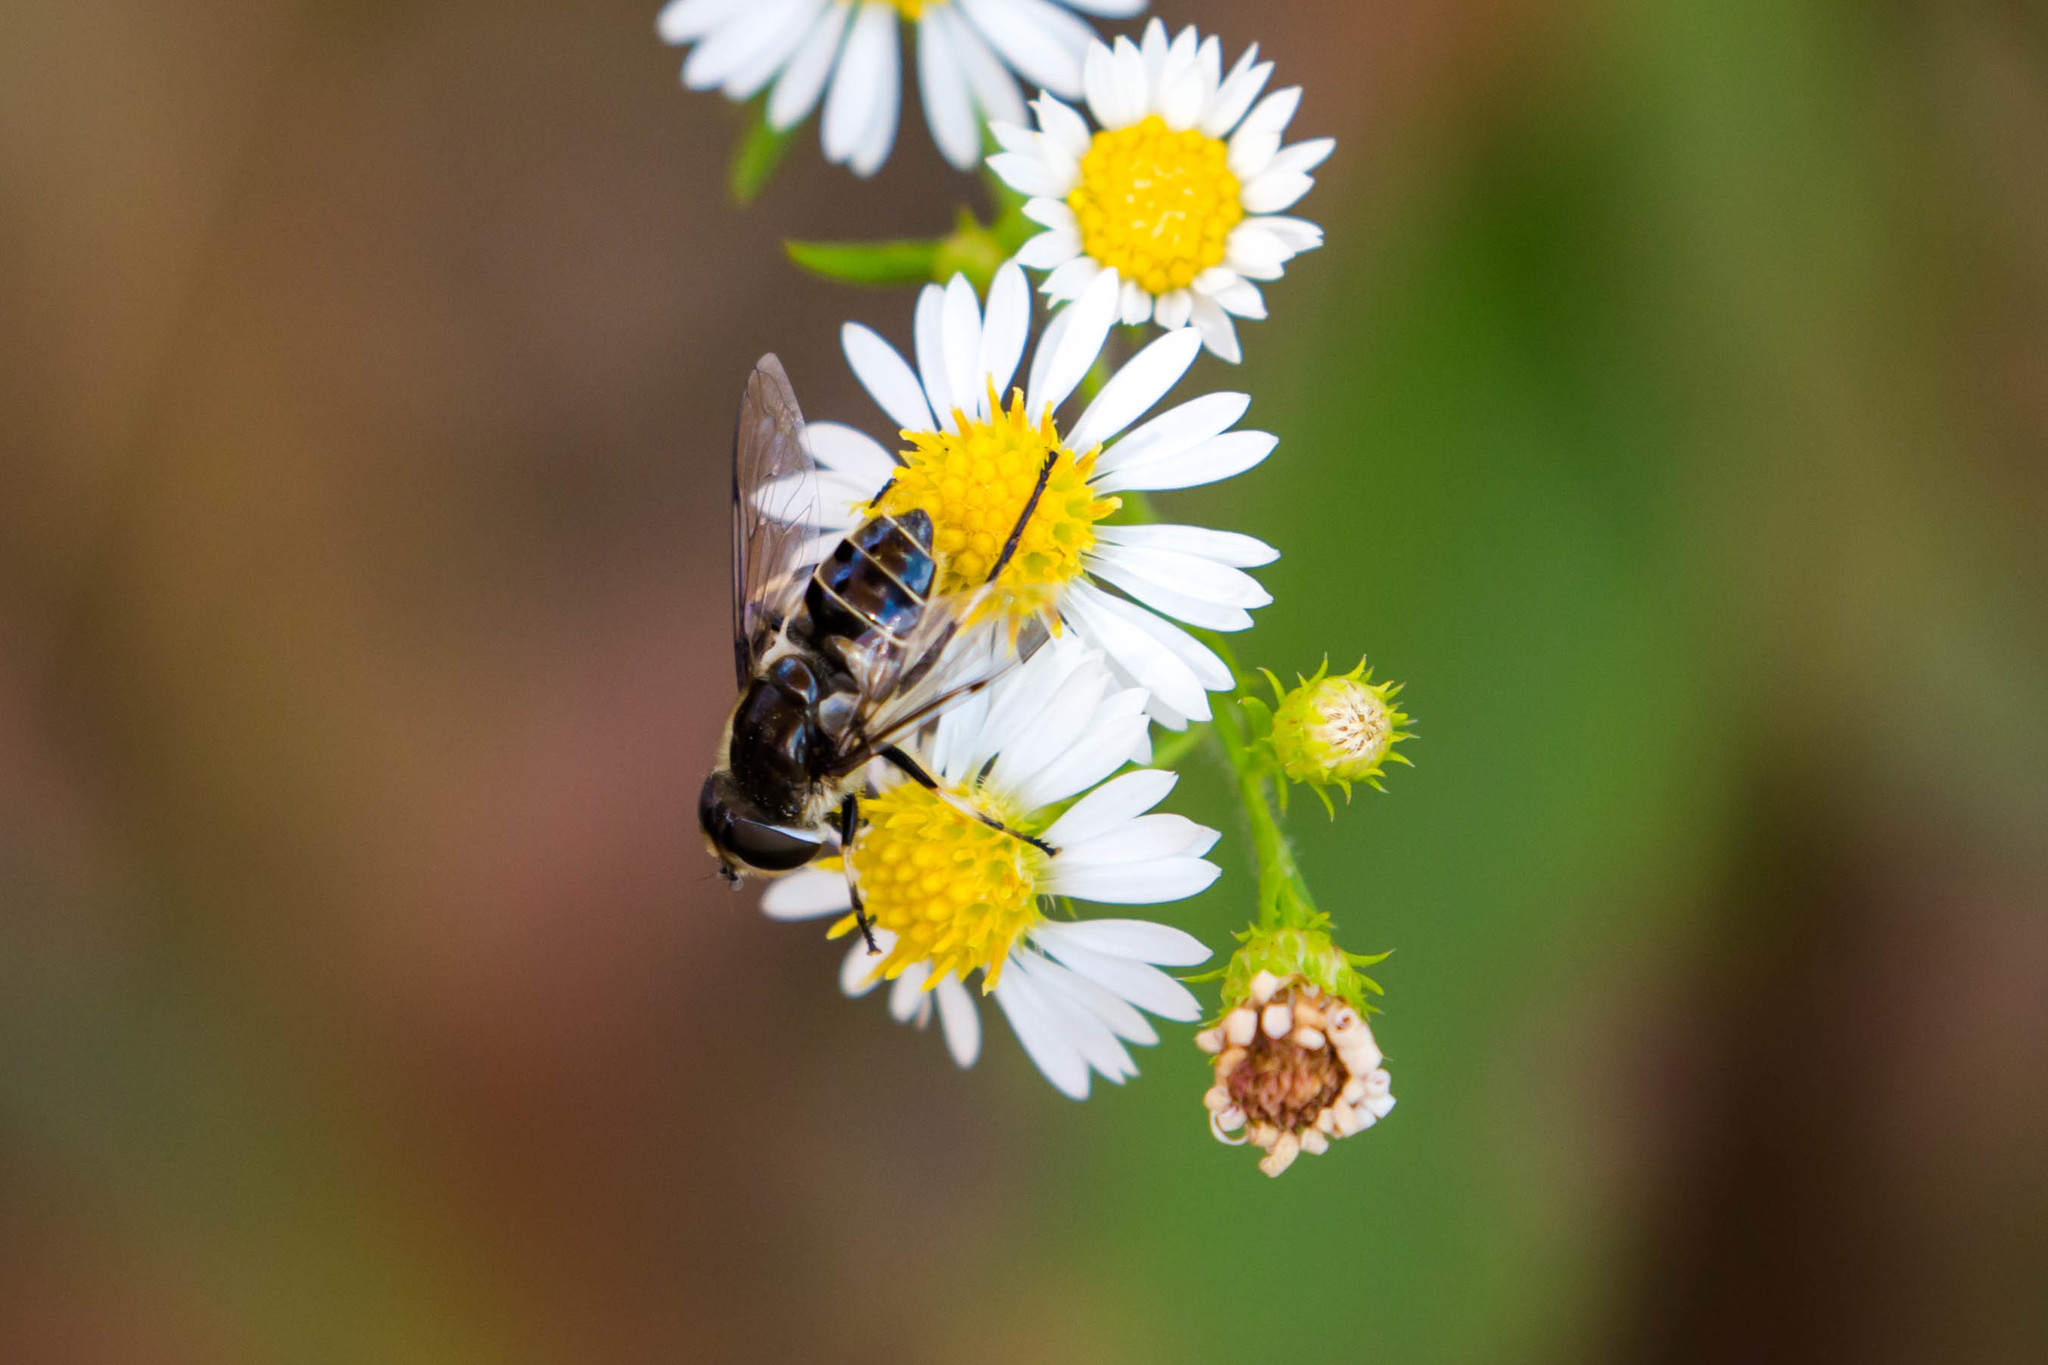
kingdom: Animalia
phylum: Arthropoda
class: Insecta
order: Diptera
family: Syrphidae
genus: Eristalis
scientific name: Eristalis dimidiata
